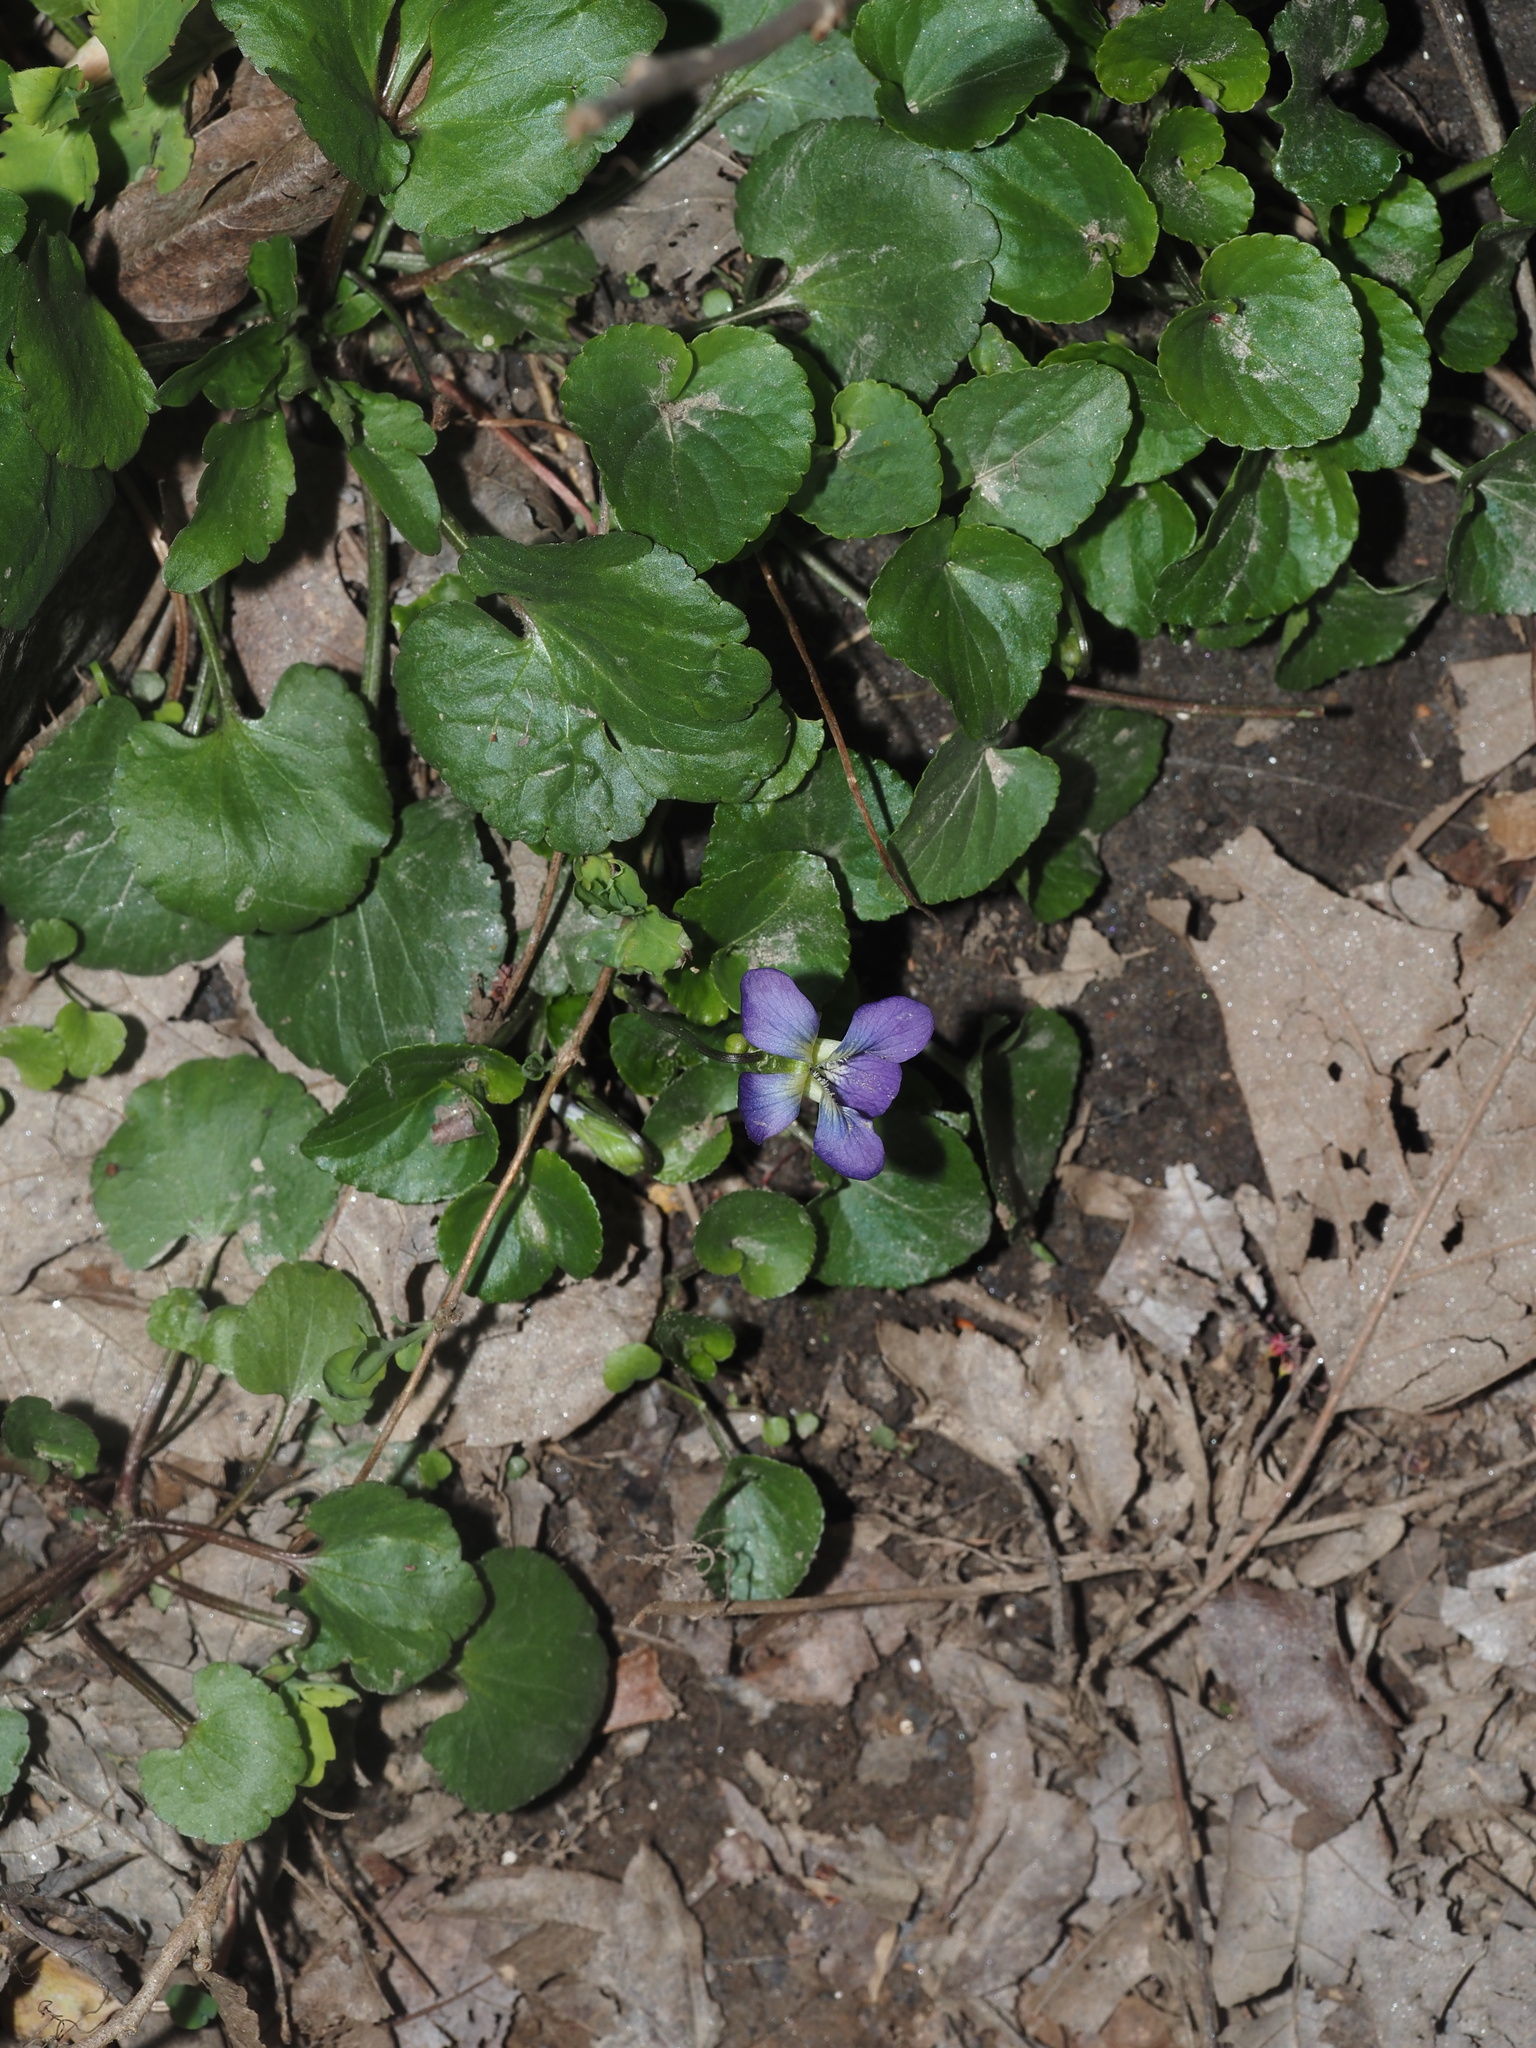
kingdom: Plantae
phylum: Tracheophyta
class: Magnoliopsida
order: Malpighiales
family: Violaceae
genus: Viola
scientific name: Viola sororia
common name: Dooryard violet
